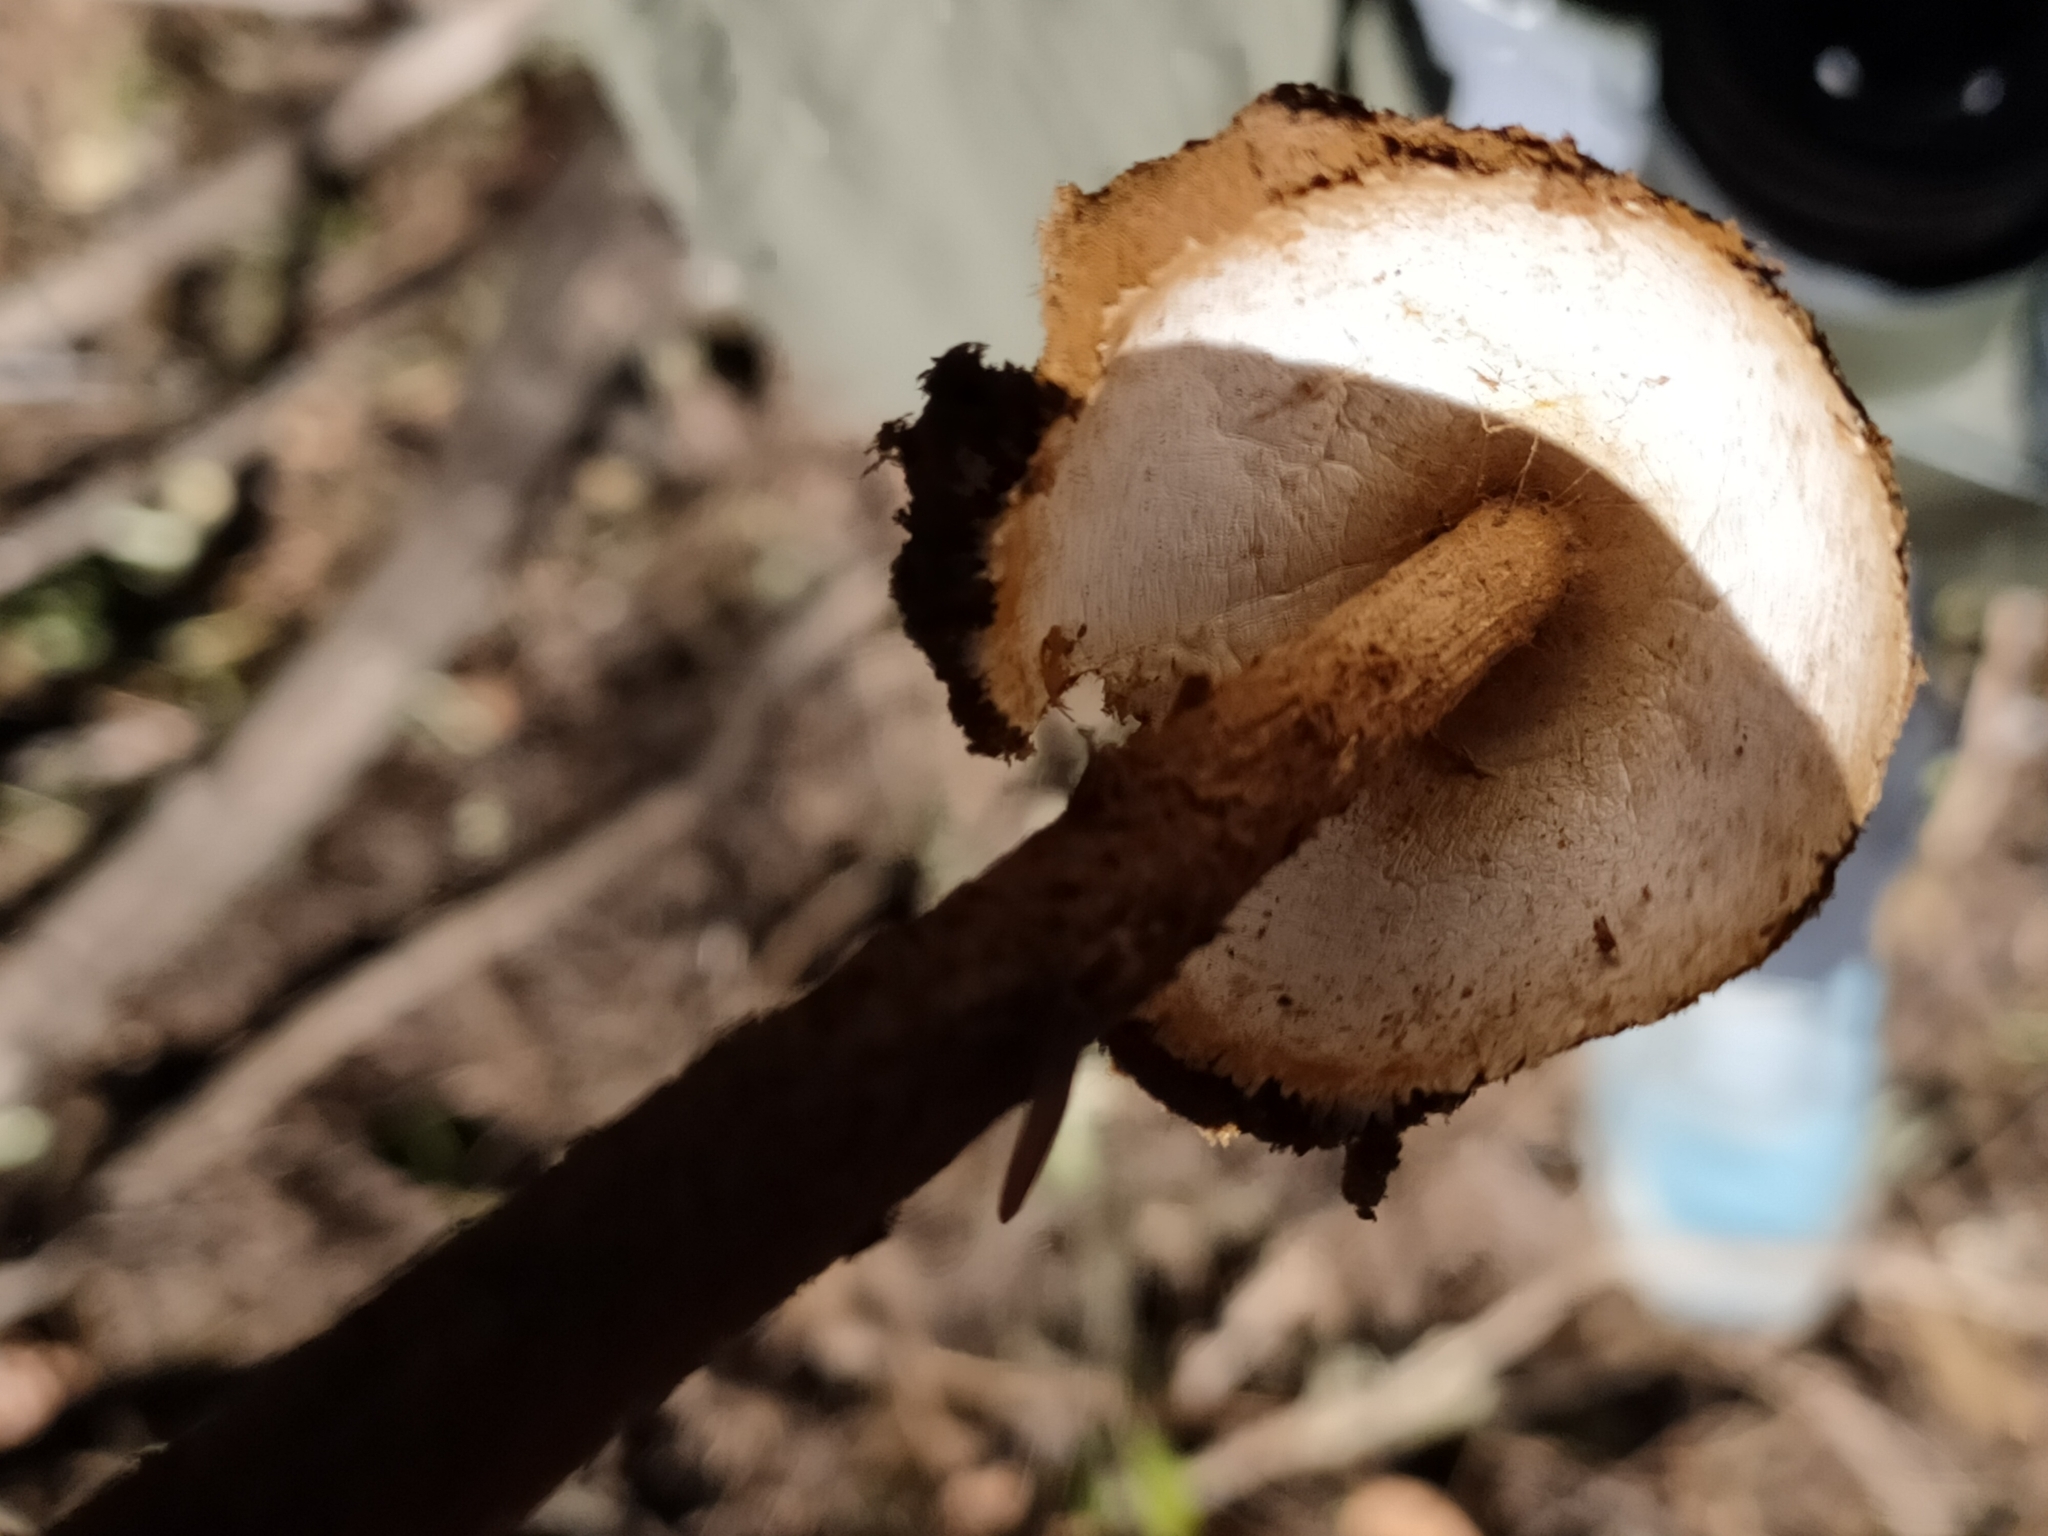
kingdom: Fungi
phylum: Basidiomycota
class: Agaricomycetes
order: Agaricales
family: Agaricaceae
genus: Battarrea
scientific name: Battarrea phalloides
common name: Sandy stiltball
